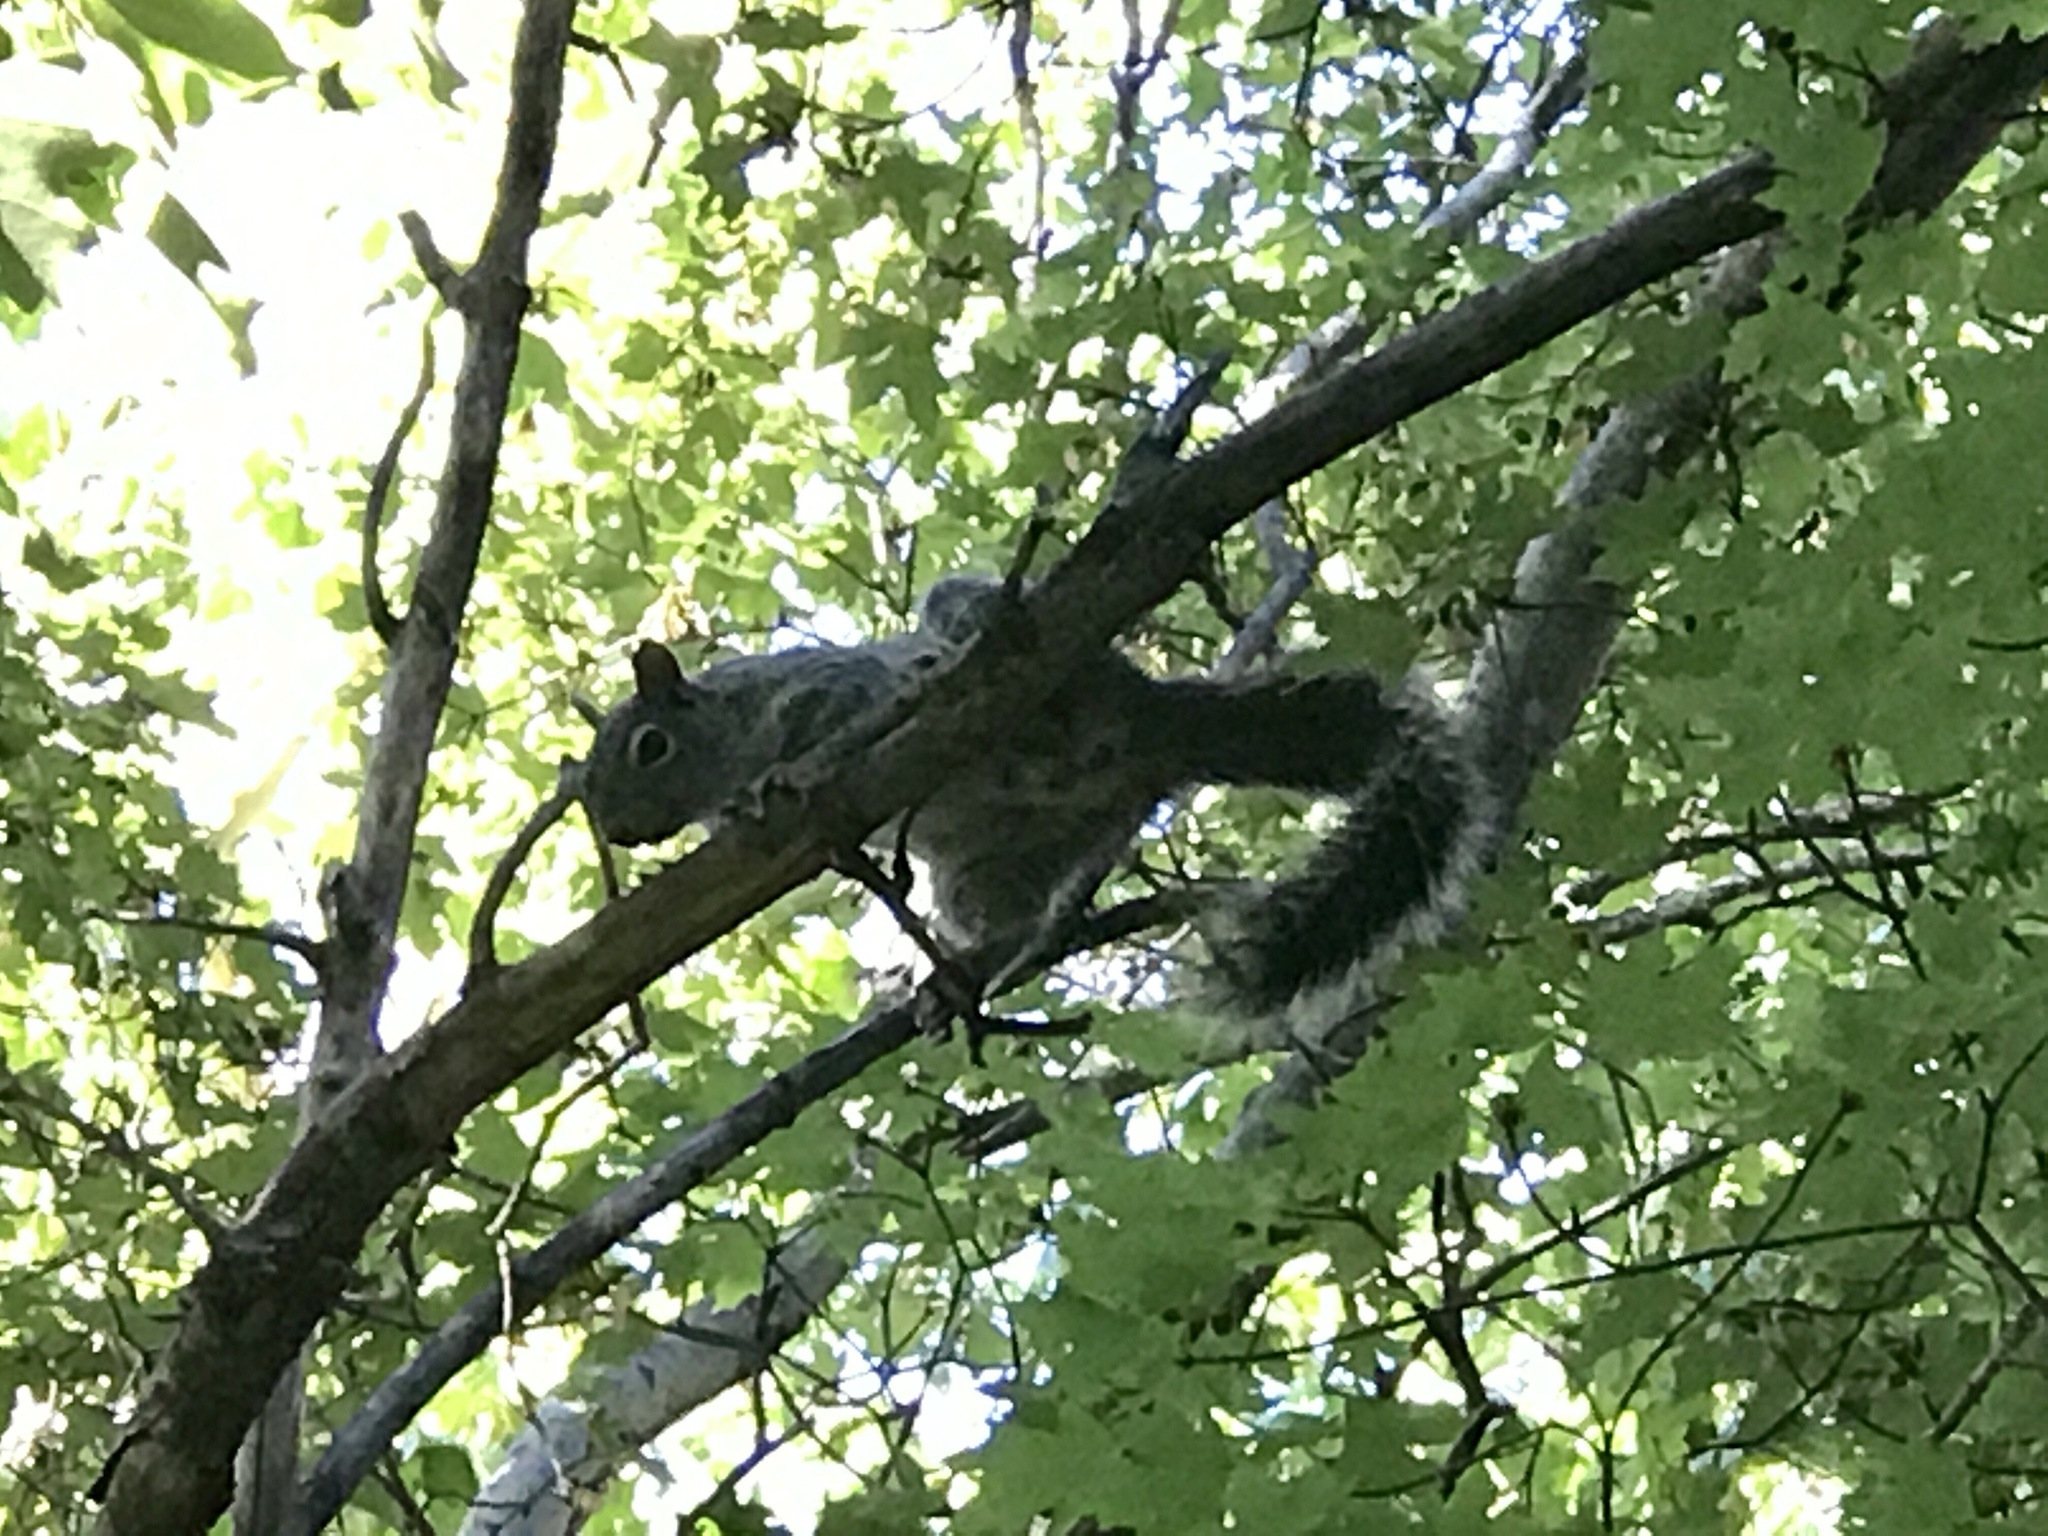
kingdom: Animalia
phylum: Chordata
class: Mammalia
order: Rodentia
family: Sciuridae
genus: Sciurus
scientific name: Sciurus arizonensis
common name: Arizona gray squirrel
